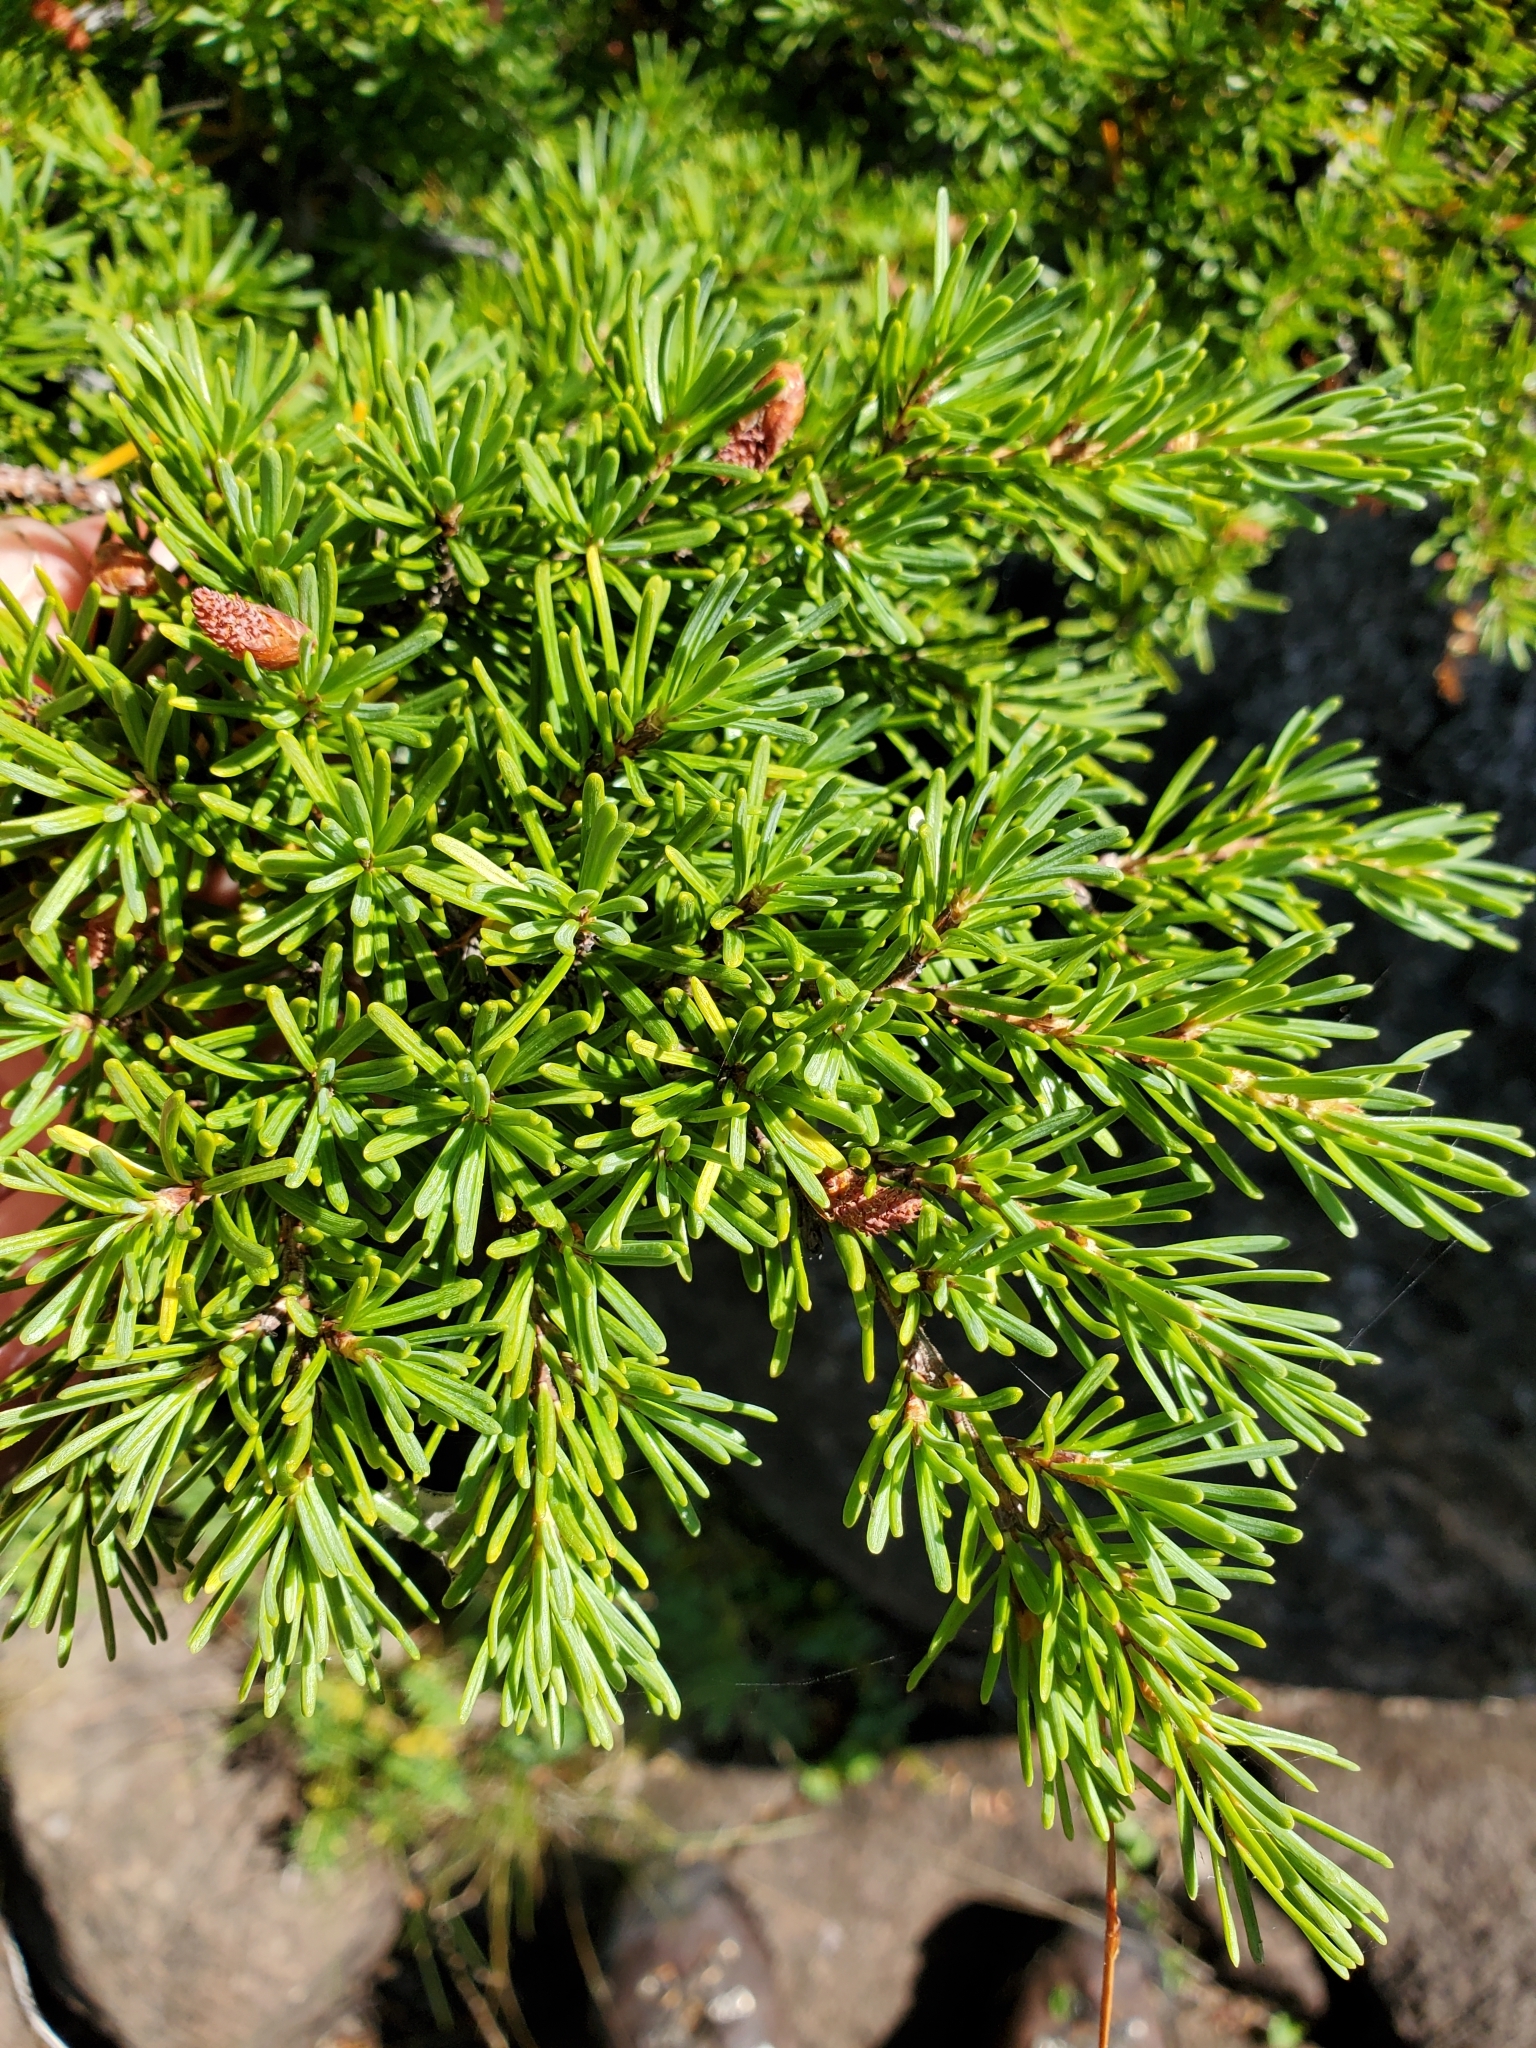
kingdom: Plantae
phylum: Tracheophyta
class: Pinopsida
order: Pinales
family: Pinaceae
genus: Tsuga
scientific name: Tsuga mertensiana
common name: Mountain hemlock
